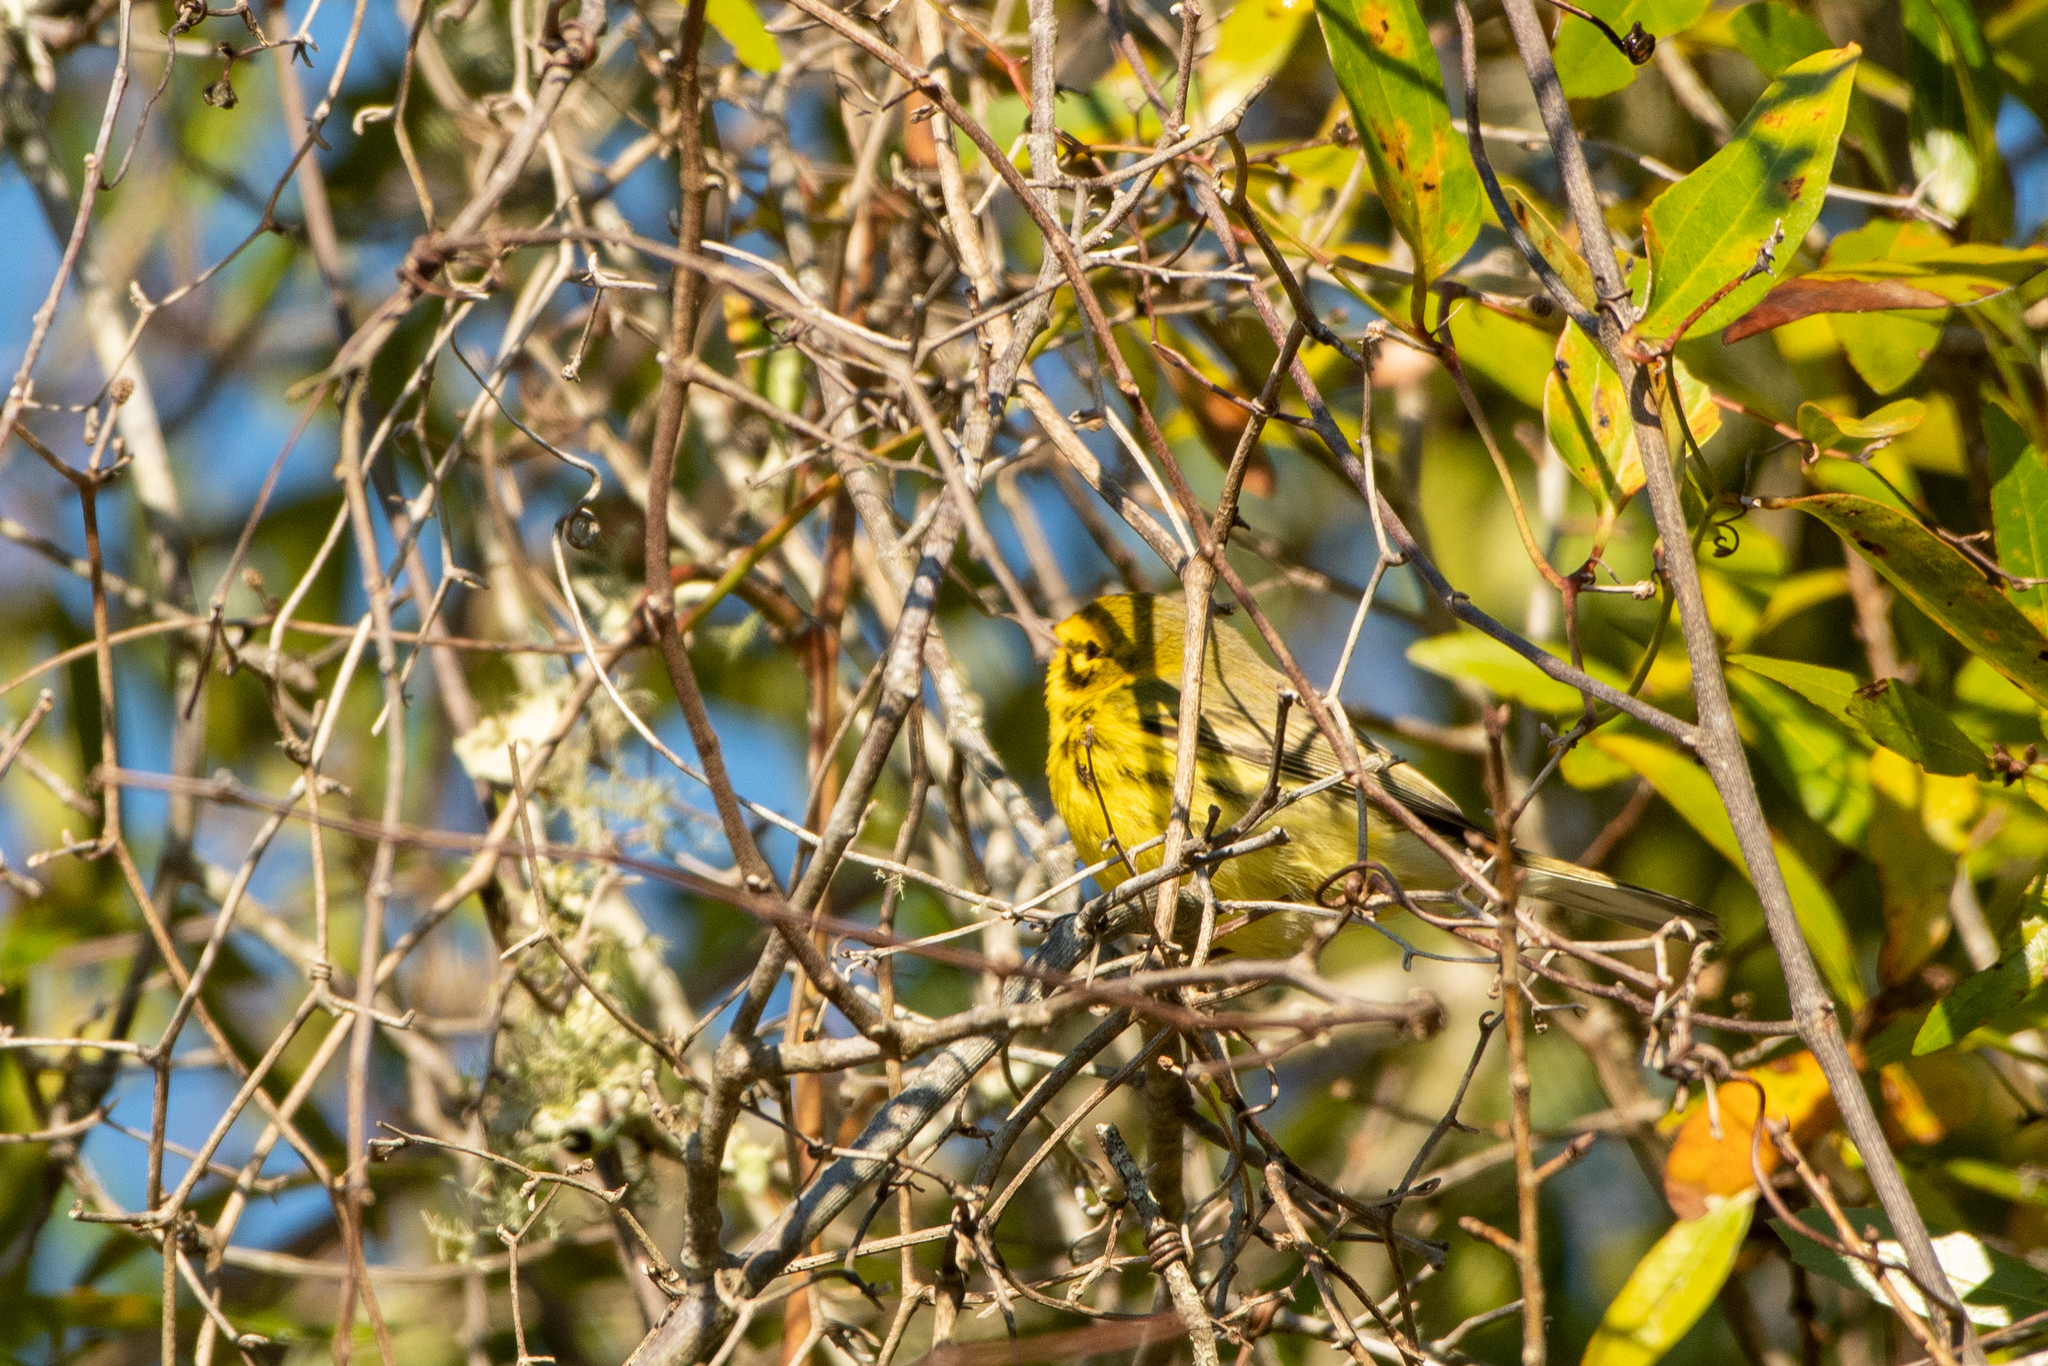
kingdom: Animalia
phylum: Chordata
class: Aves
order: Passeriformes
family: Parulidae
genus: Setophaga
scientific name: Setophaga discolor
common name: Prairie warbler
